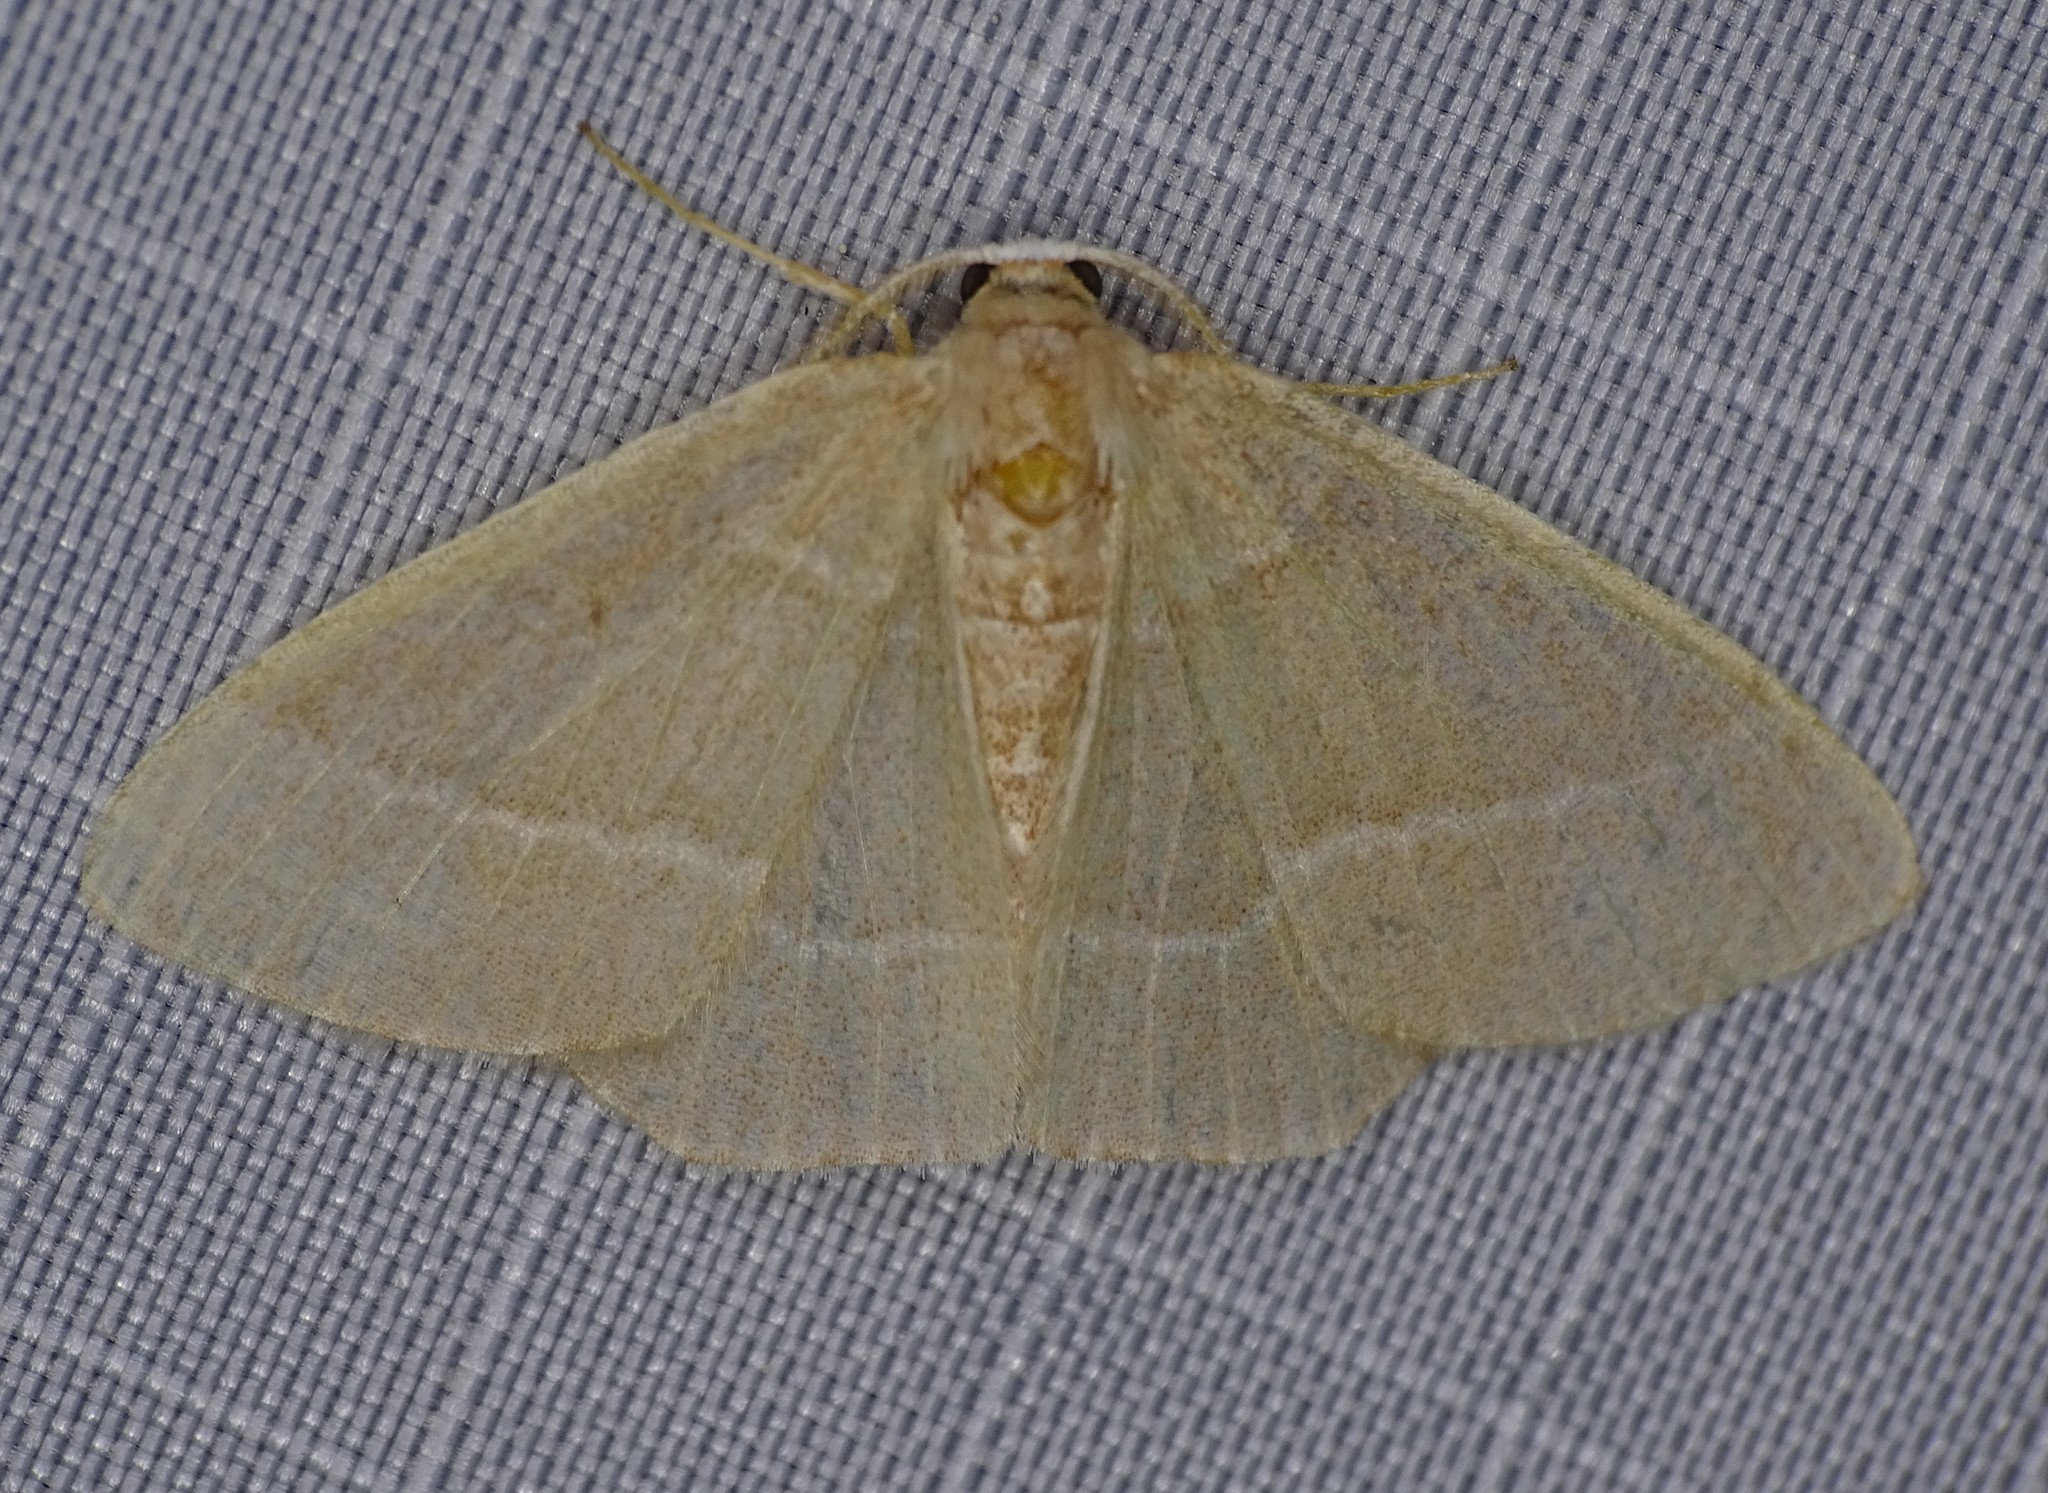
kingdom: Animalia
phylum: Arthropoda
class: Insecta
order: Lepidoptera
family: Geometridae
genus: Nemoria
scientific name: Nemoria bistriaria
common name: Red-fringed emerald
